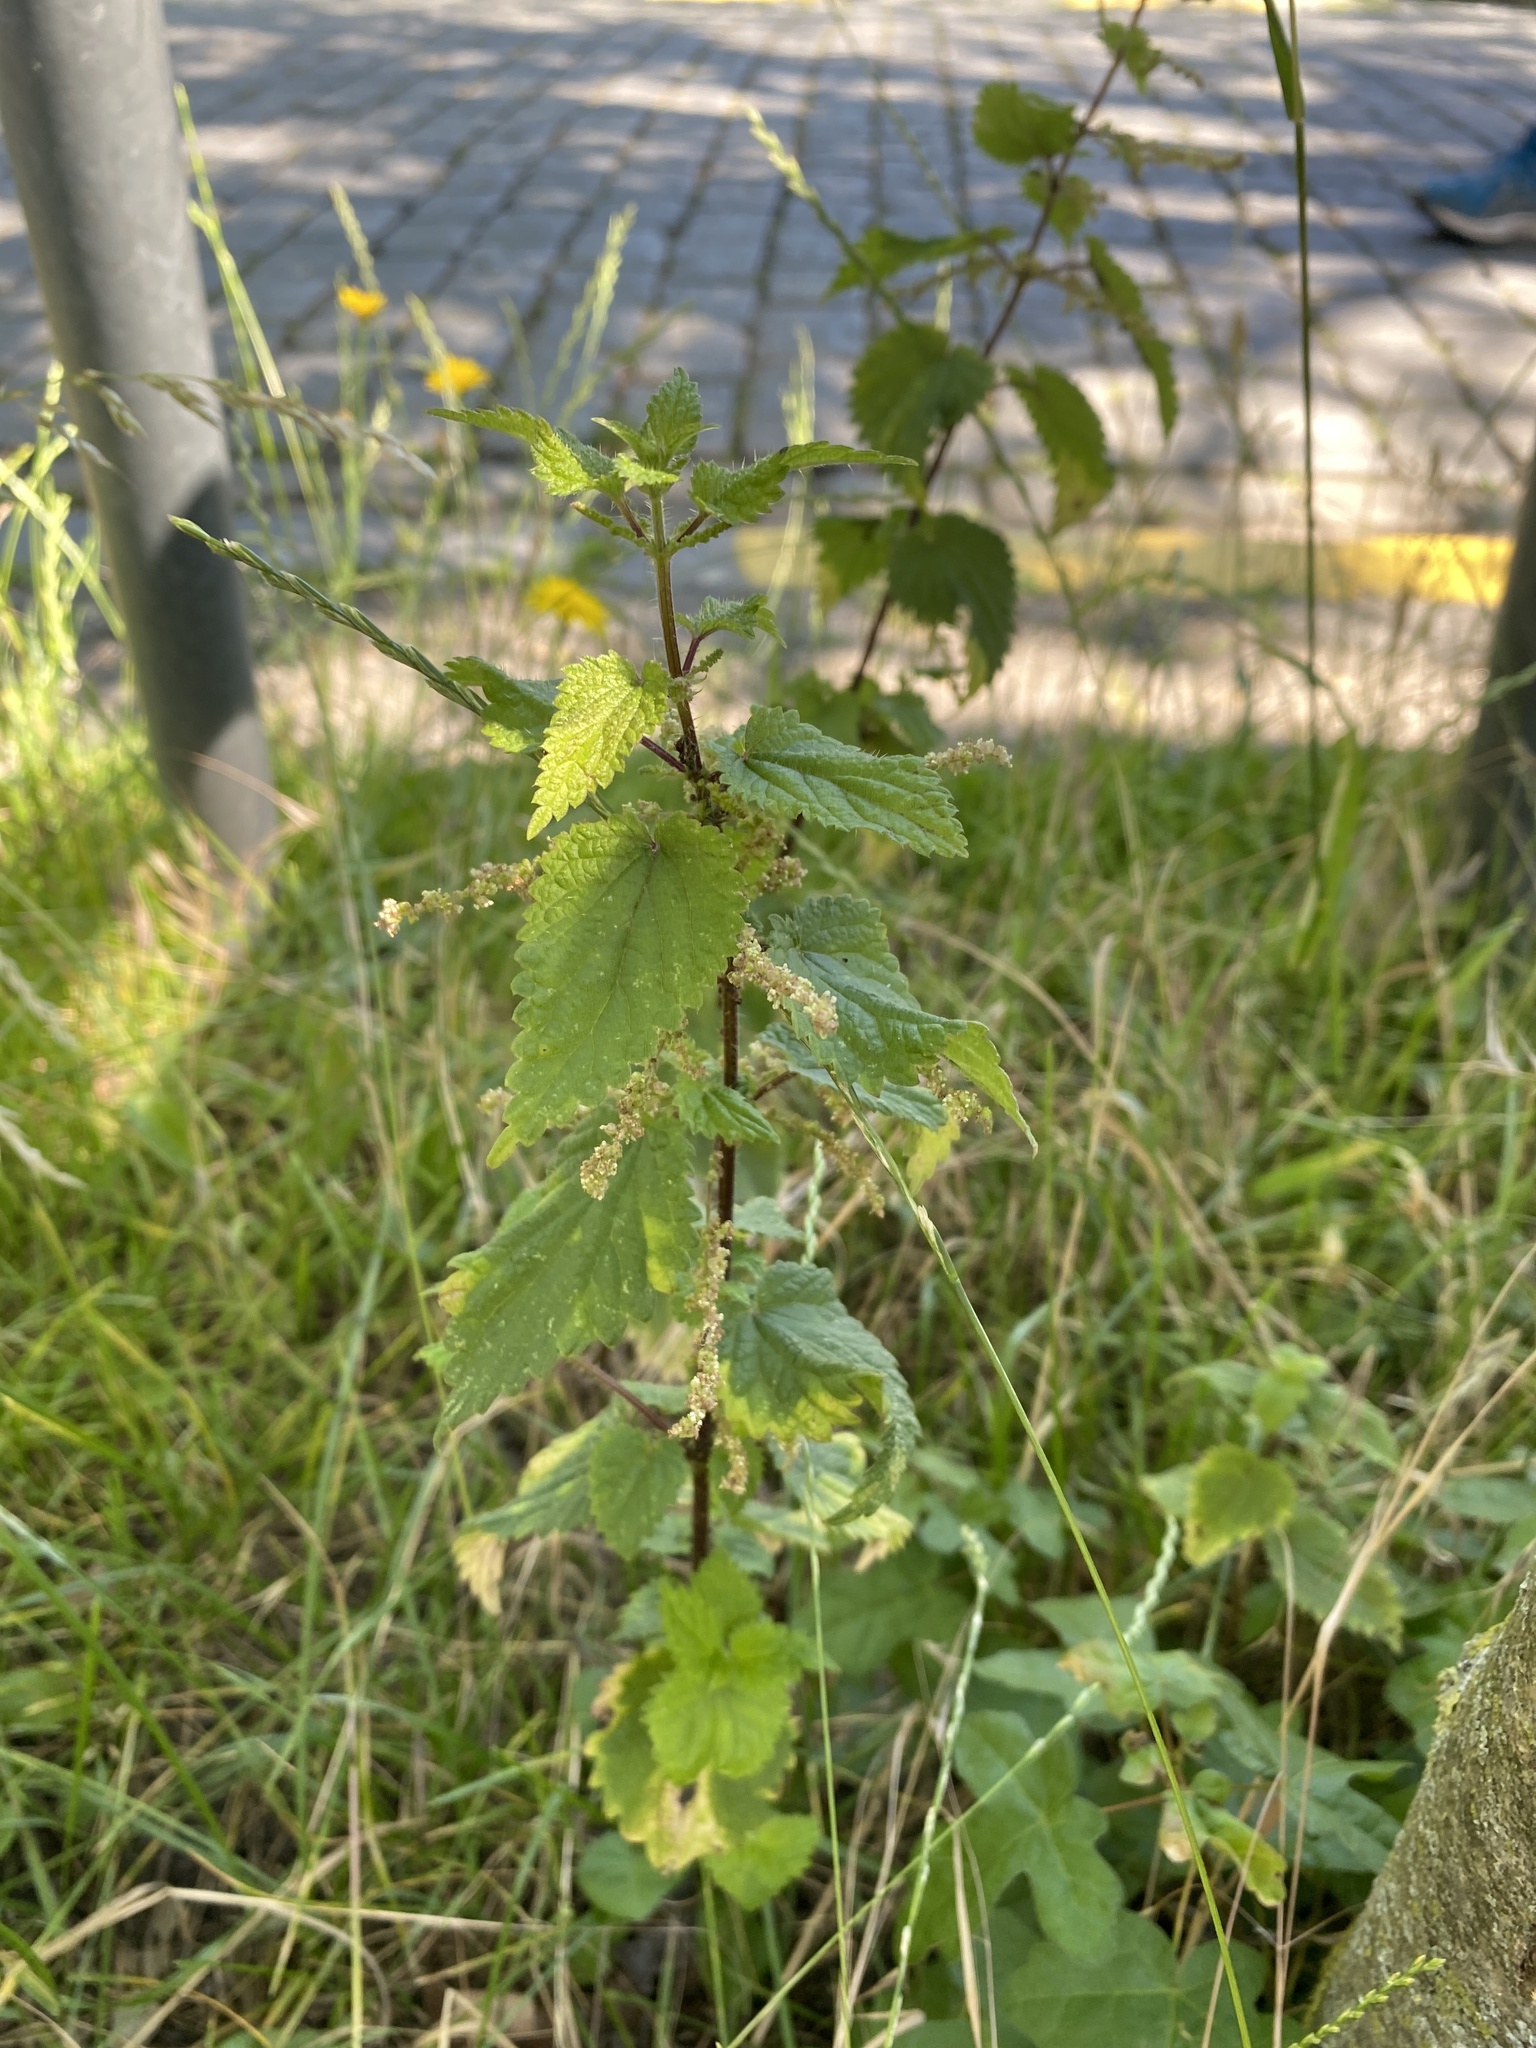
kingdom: Plantae
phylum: Tracheophyta
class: Magnoliopsida
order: Rosales
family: Urticaceae
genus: Urtica
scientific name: Urtica dioica
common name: Common nettle
